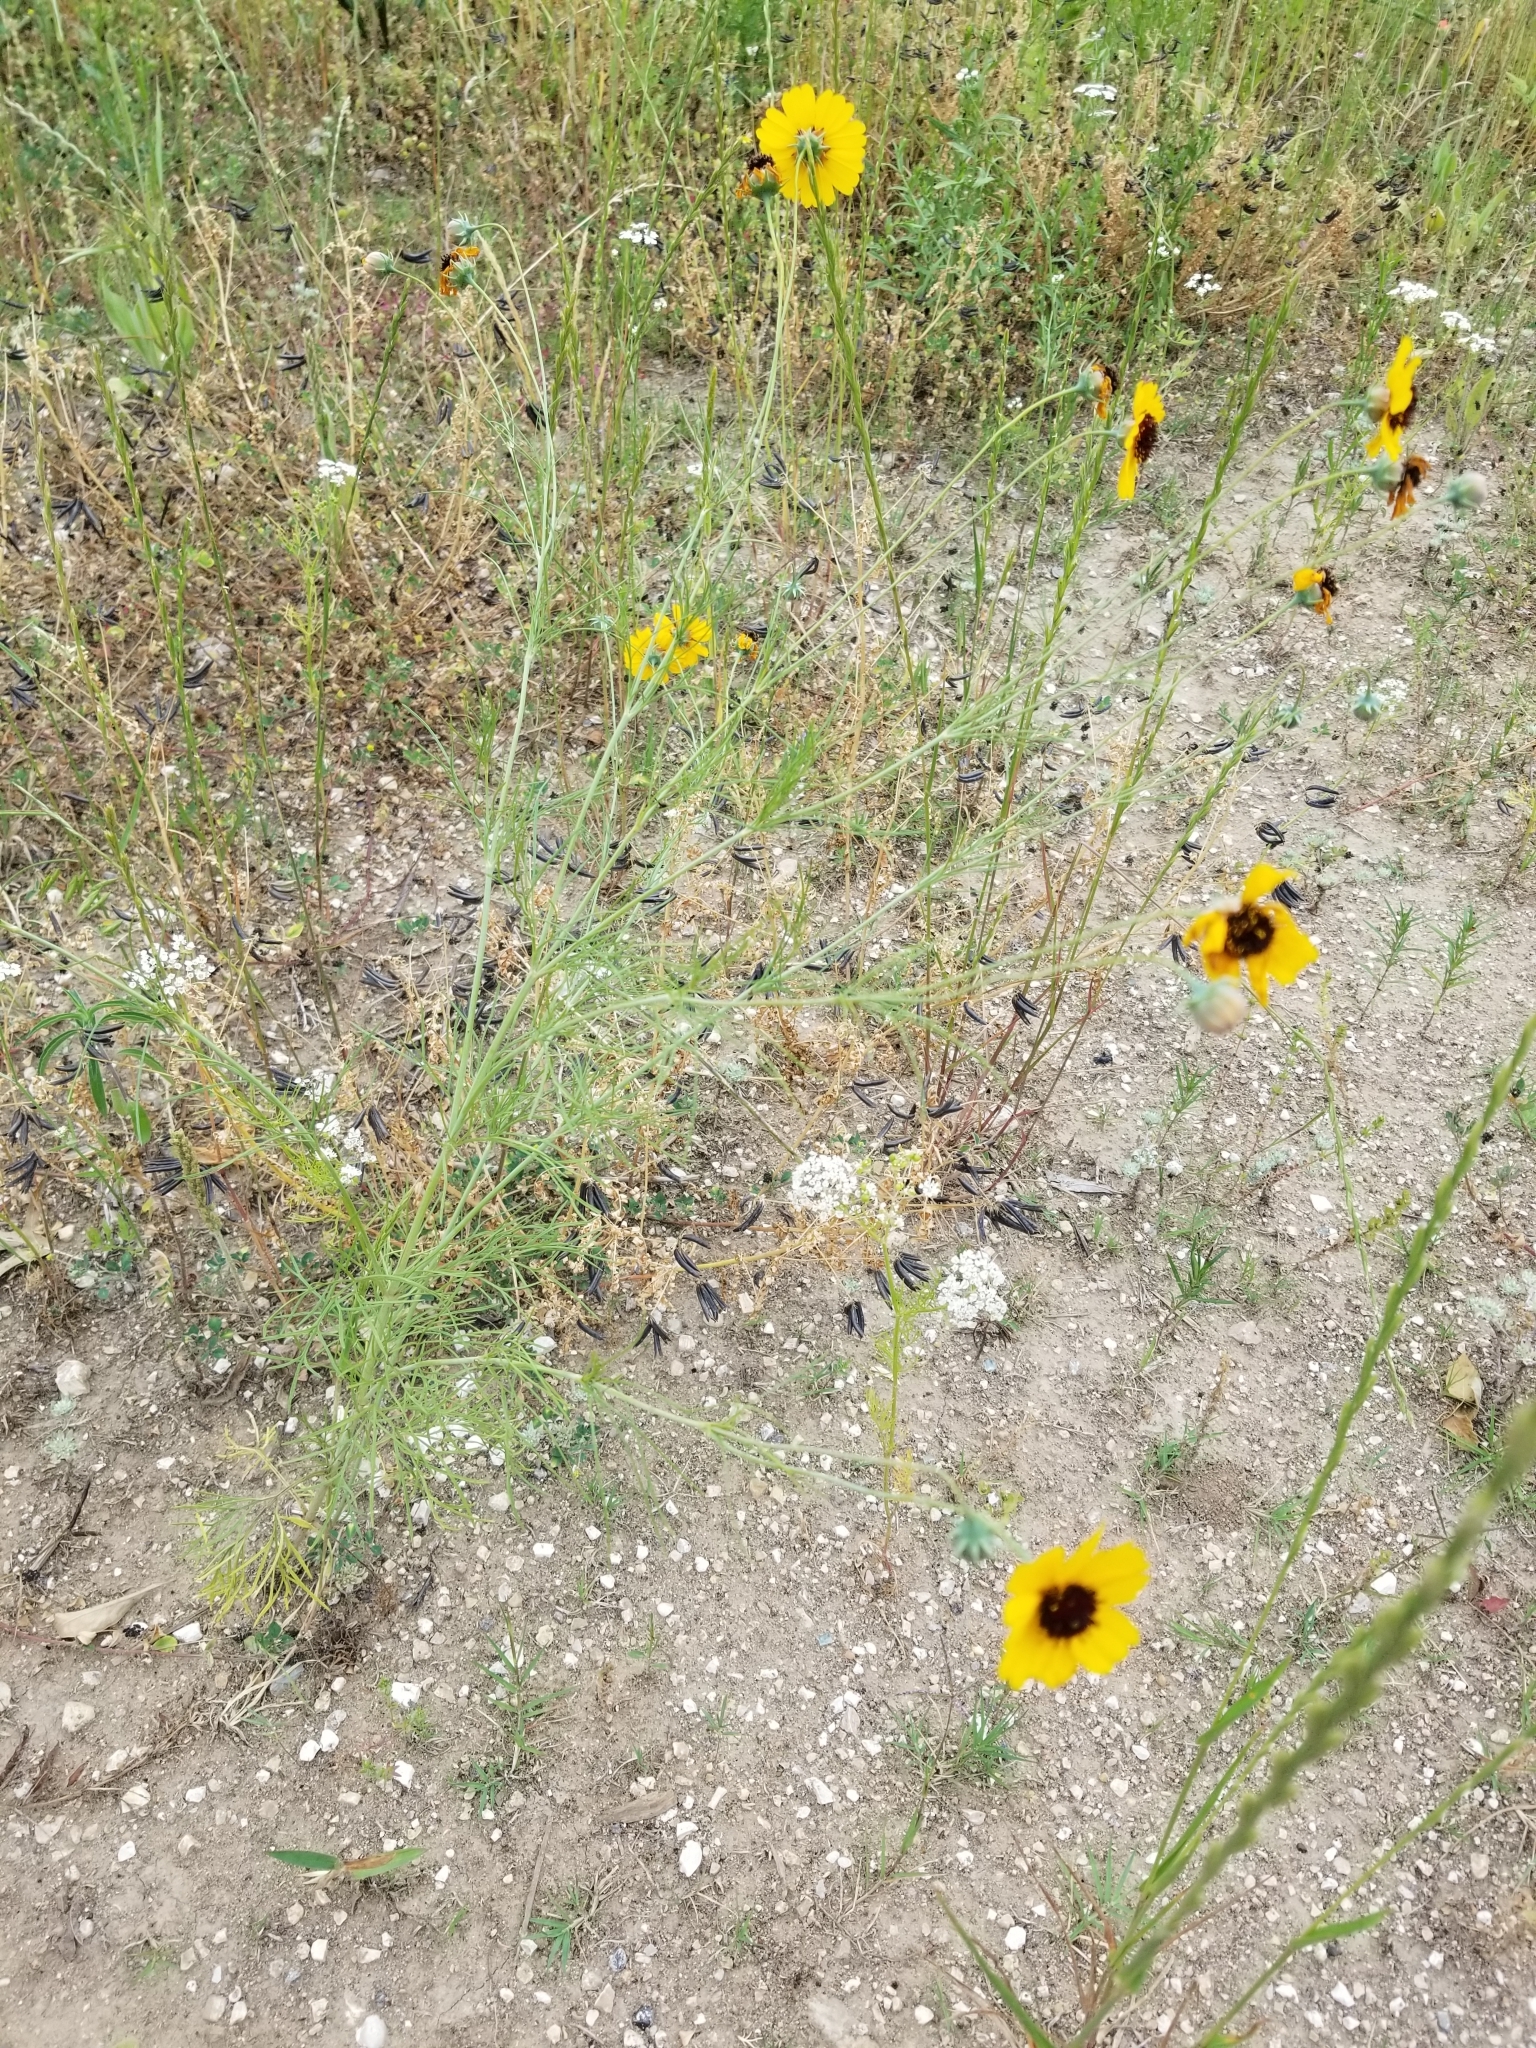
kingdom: Plantae
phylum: Tracheophyta
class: Magnoliopsida
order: Asterales
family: Asteraceae
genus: Thelesperma
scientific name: Thelesperma filifolium
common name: Stiff greenthread
